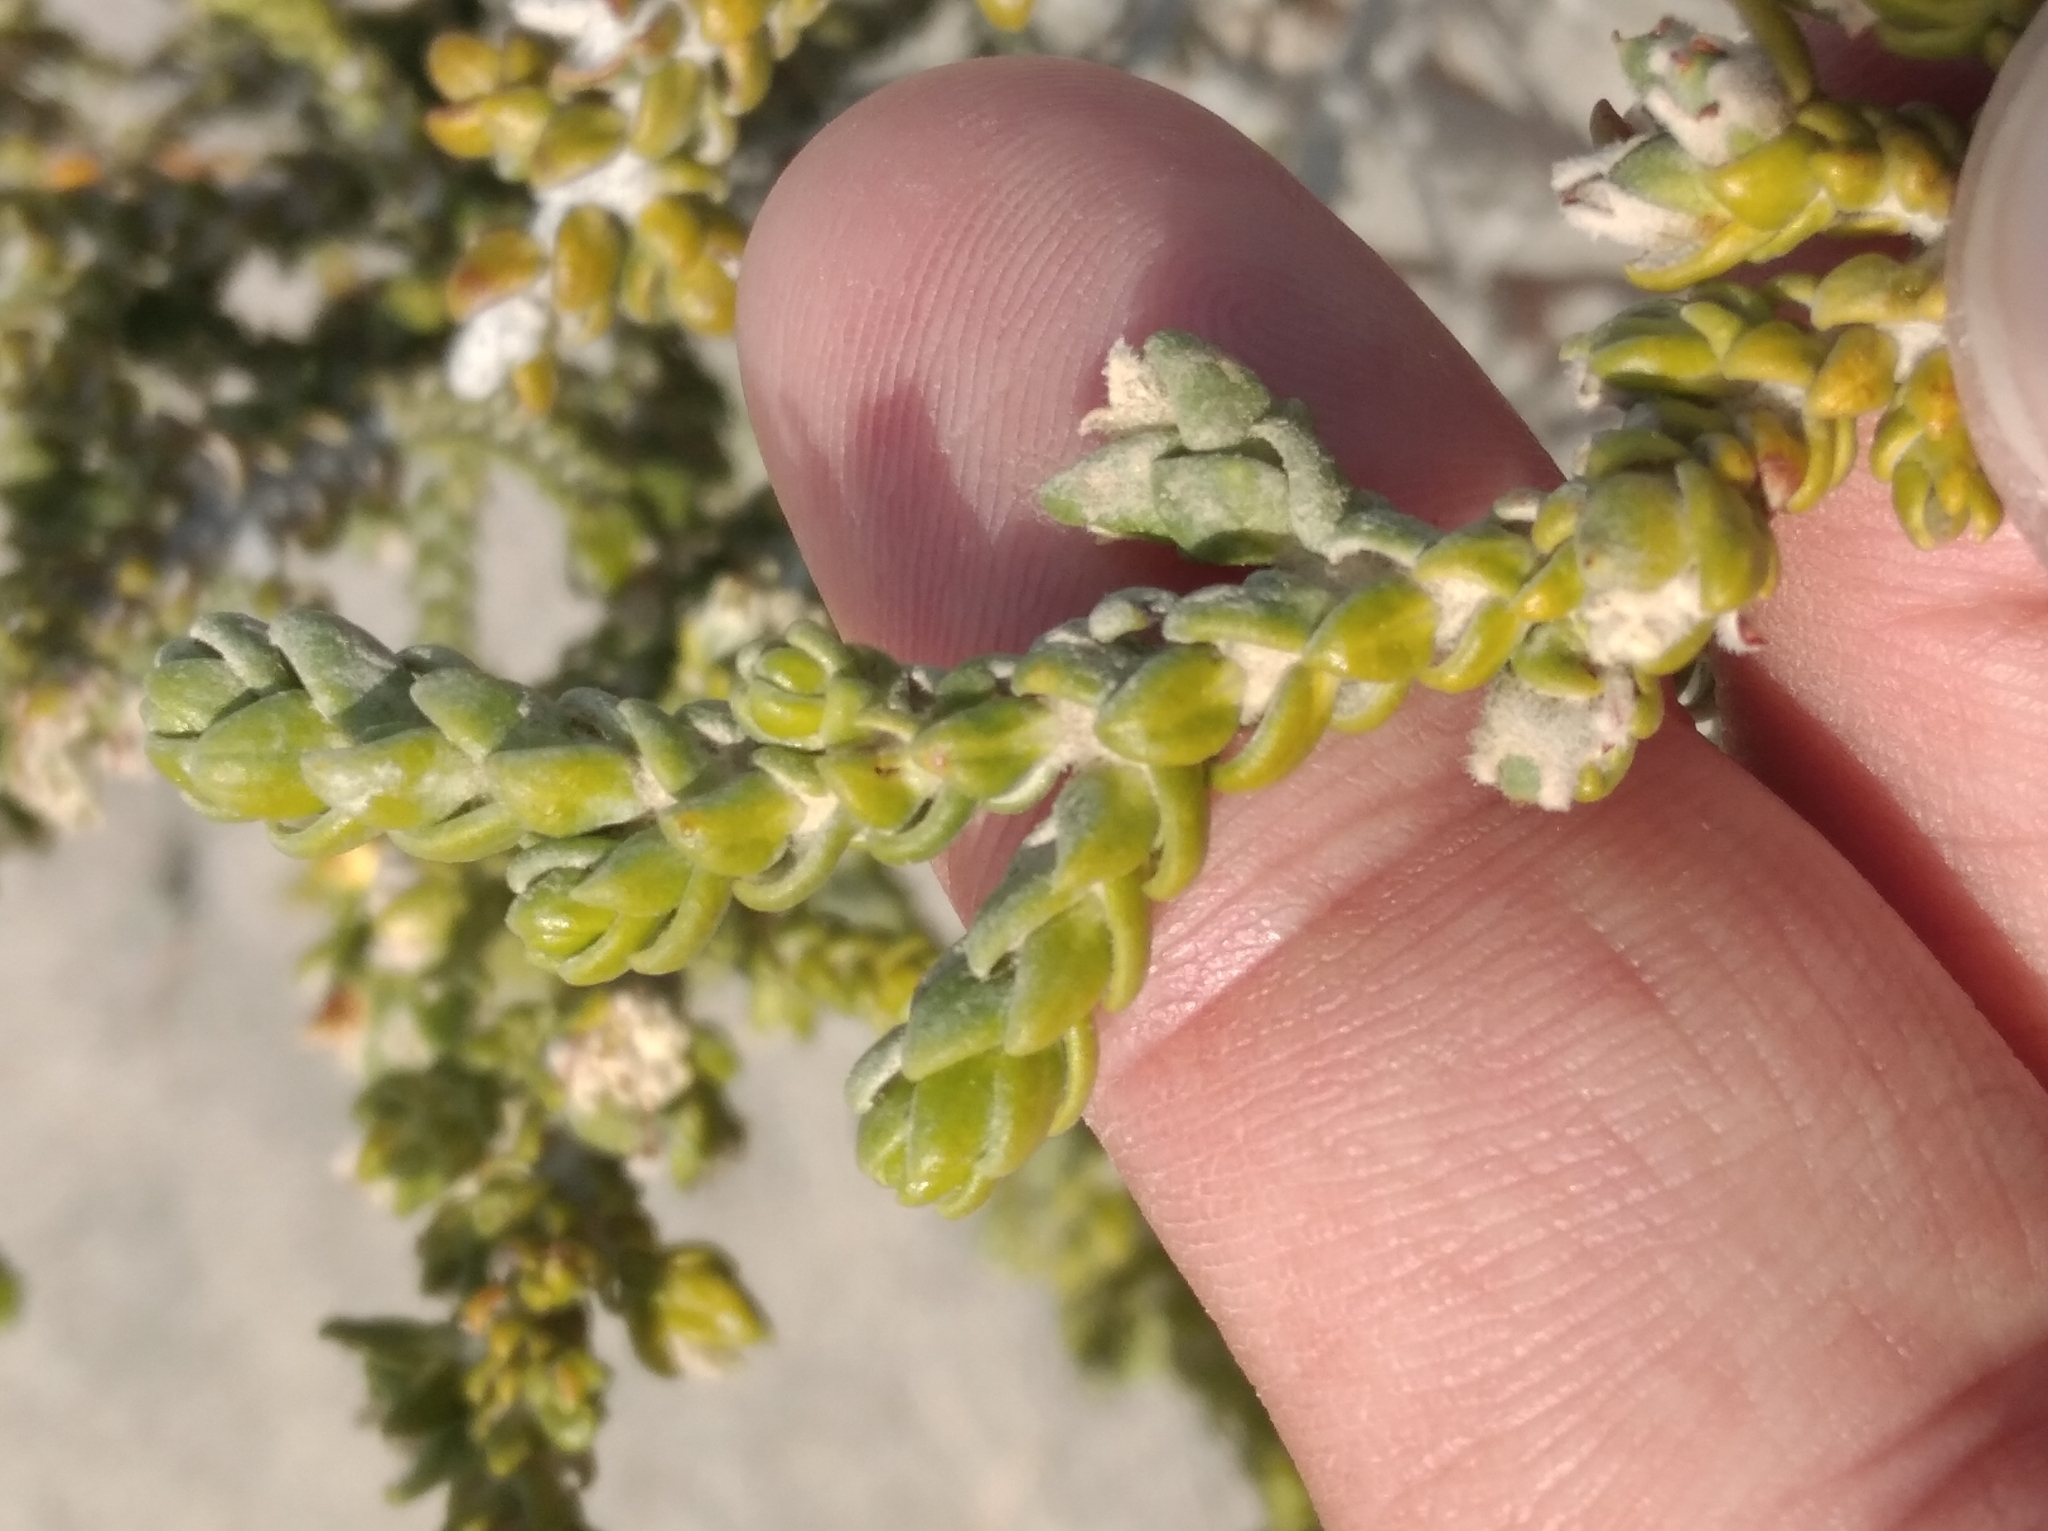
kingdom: Plantae
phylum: Tracheophyta
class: Magnoliopsida
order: Malvales
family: Thymelaeaceae
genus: Thymelaea
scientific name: Thymelaea hirsuta
